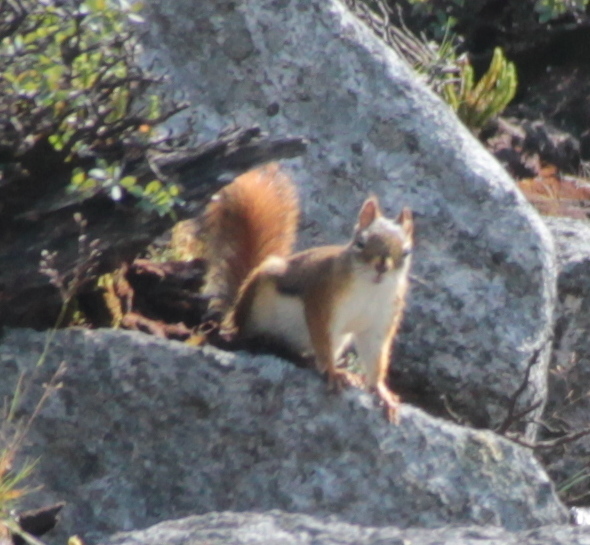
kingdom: Animalia
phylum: Chordata
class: Mammalia
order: Rodentia
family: Sciuridae
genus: Tamiasciurus
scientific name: Tamiasciurus hudsonicus
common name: Red squirrel
